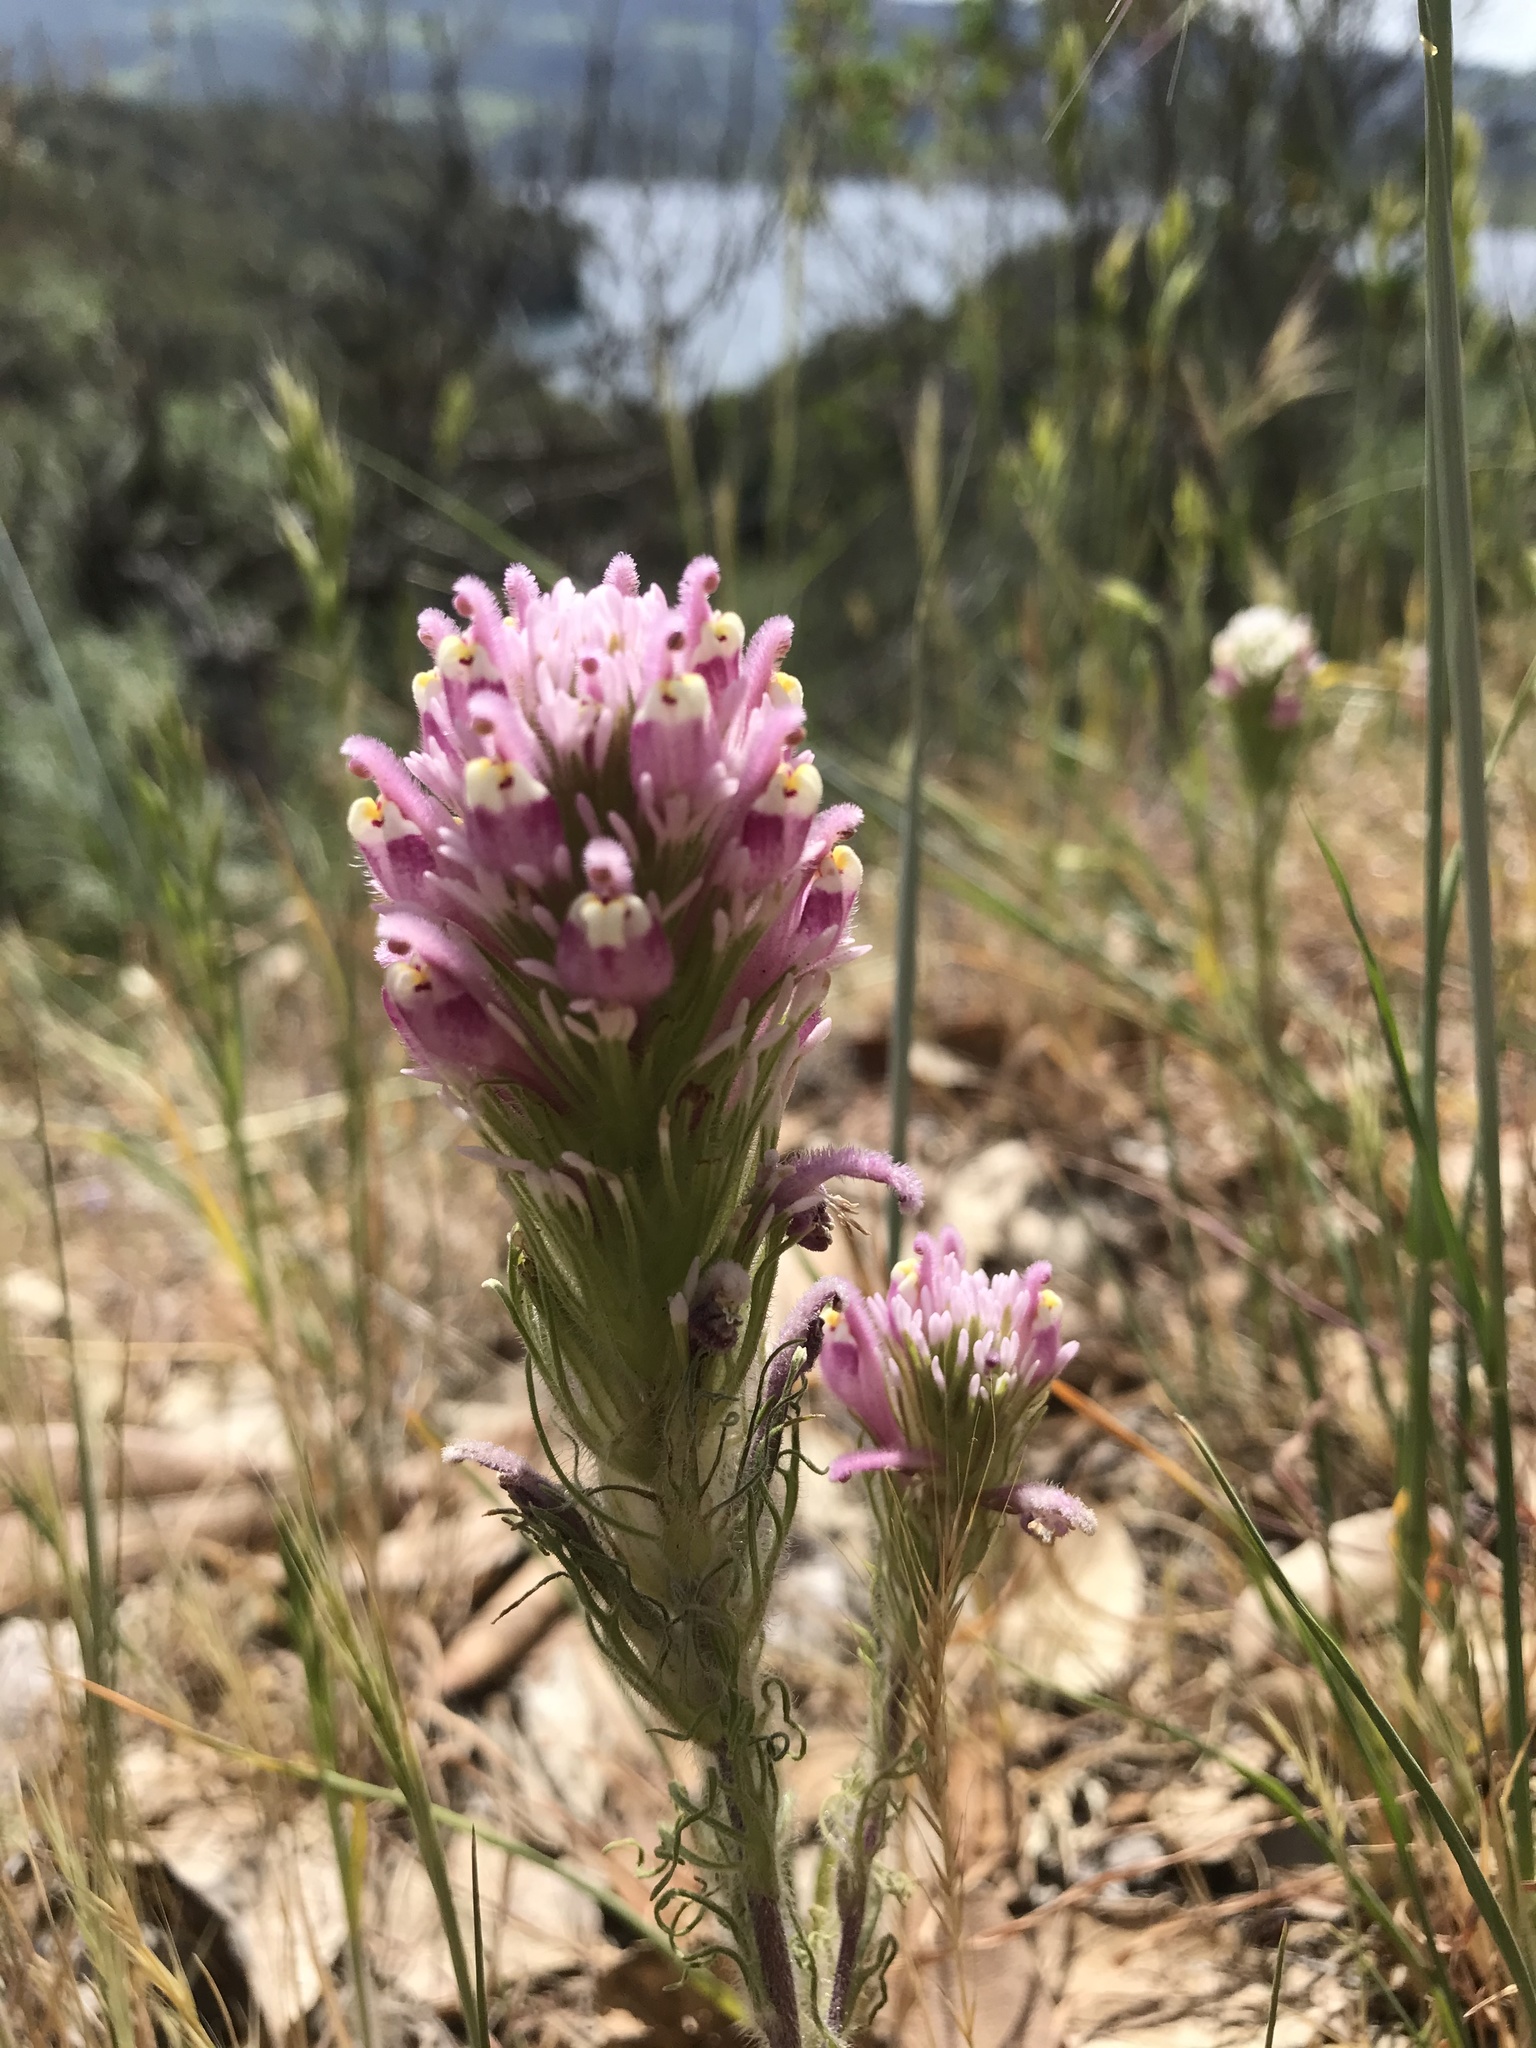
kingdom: Plantae
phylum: Tracheophyta
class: Magnoliopsida
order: Lamiales
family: Orobanchaceae
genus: Castilleja
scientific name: Castilleja exserta
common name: Purple owl-clover
